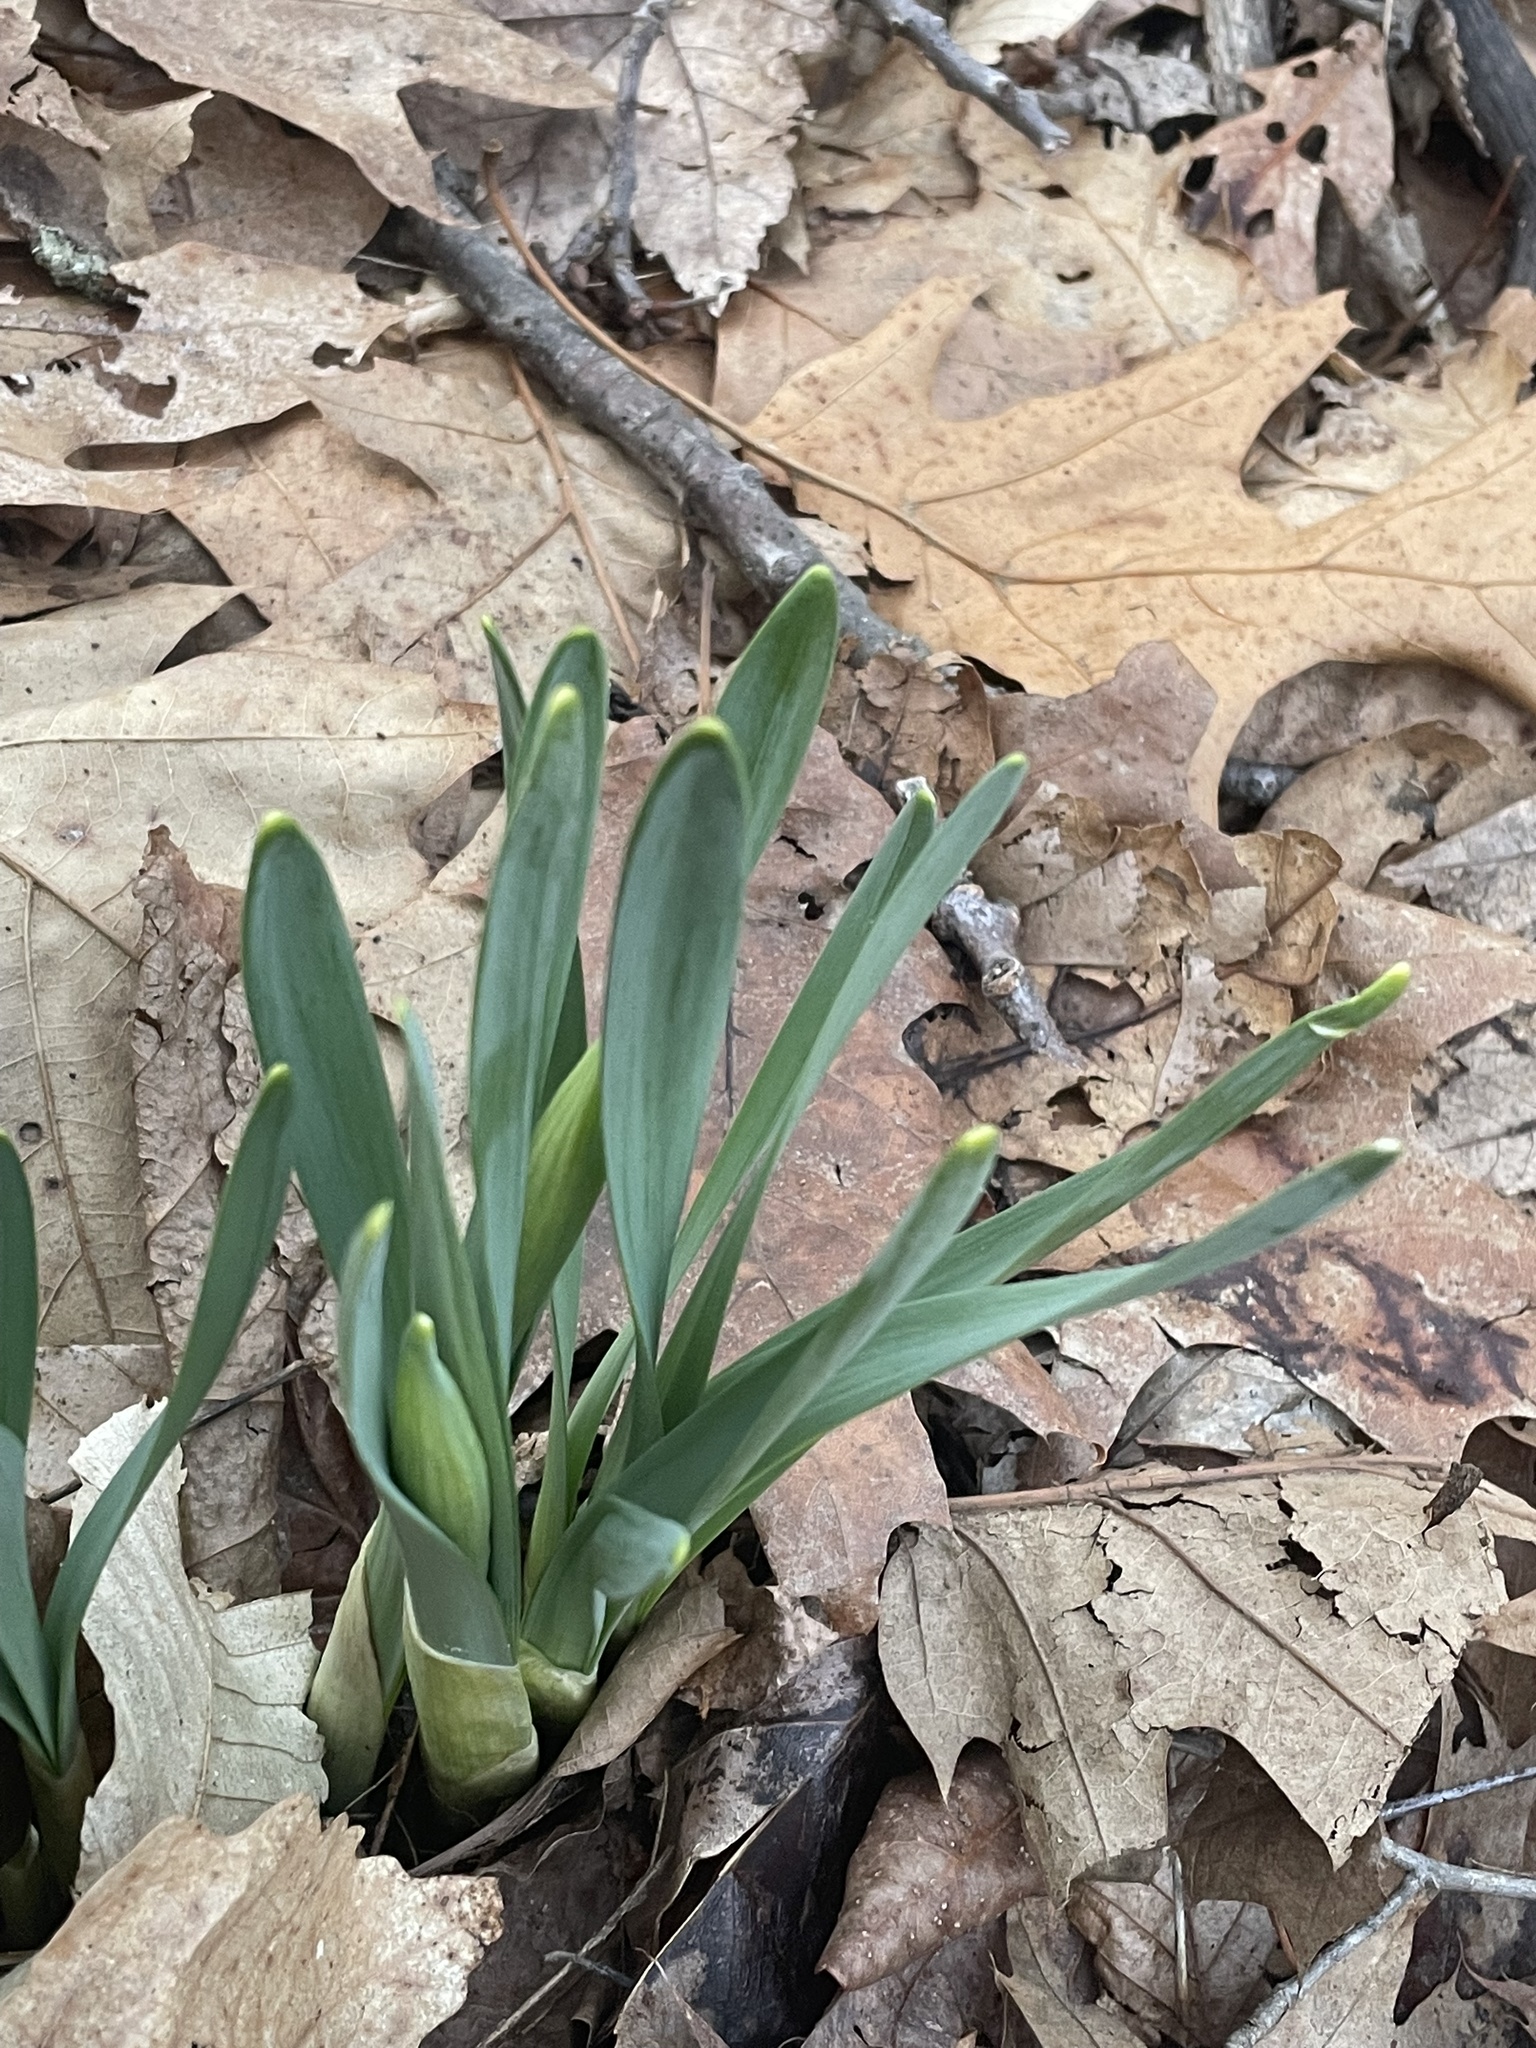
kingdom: Plantae
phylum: Tracheophyta
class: Liliopsida
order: Asparagales
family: Amaryllidaceae
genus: Narcissus
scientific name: Narcissus
